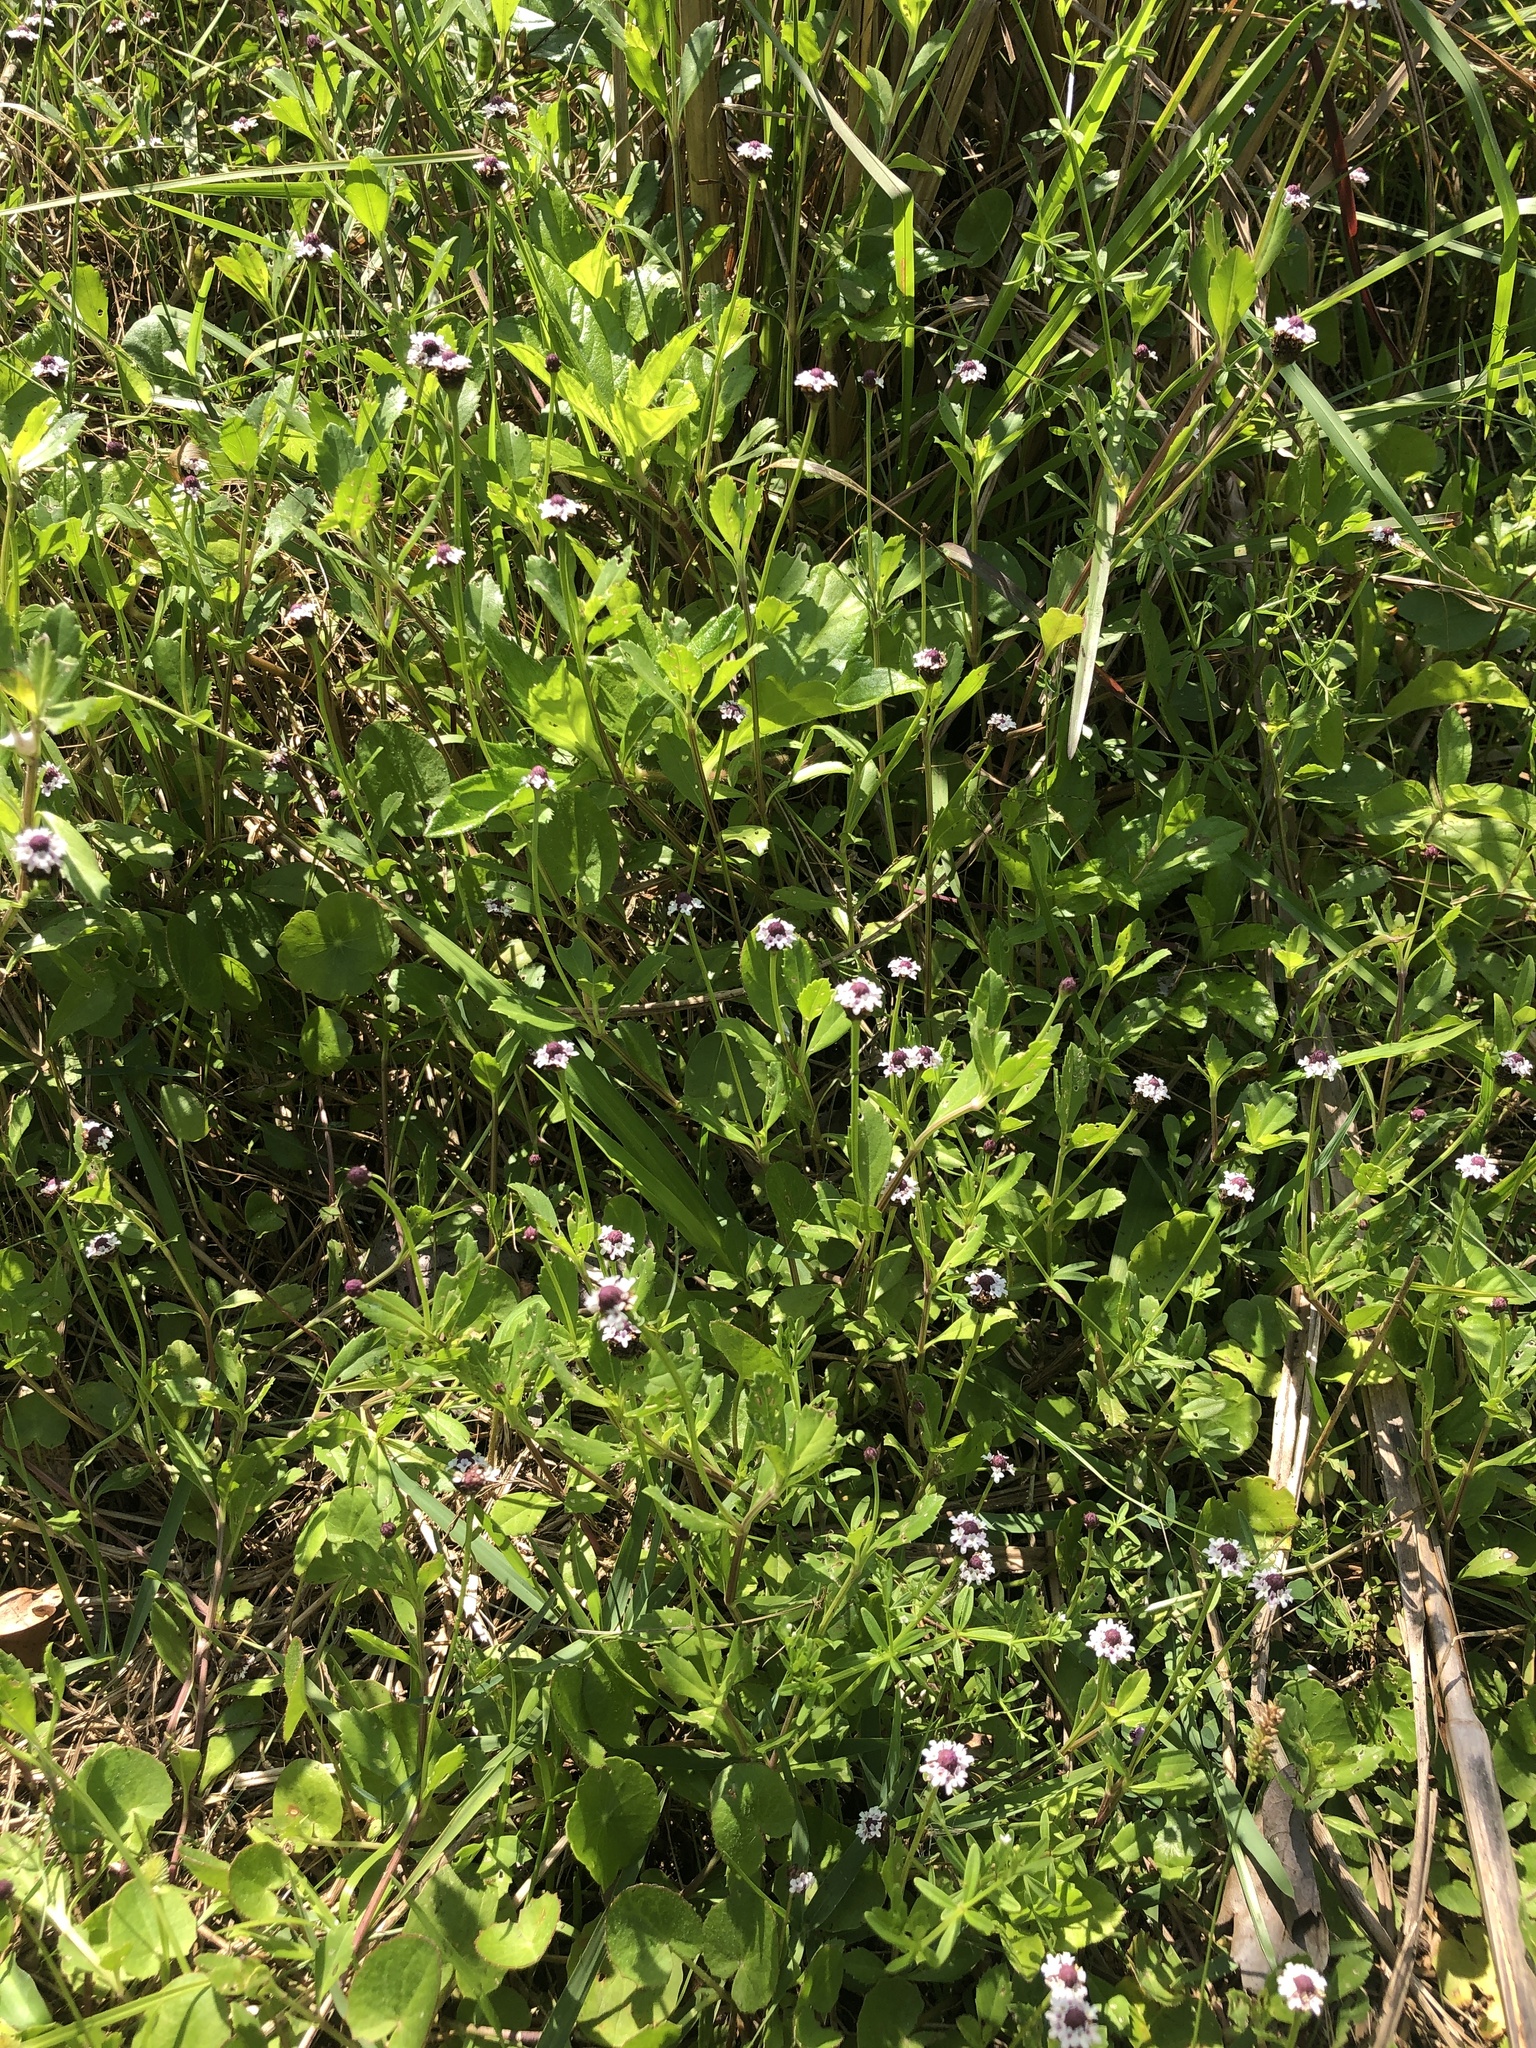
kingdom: Plantae
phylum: Tracheophyta
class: Magnoliopsida
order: Lamiales
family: Verbenaceae
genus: Phyla
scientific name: Phyla nodiflora
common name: Frogfruit
